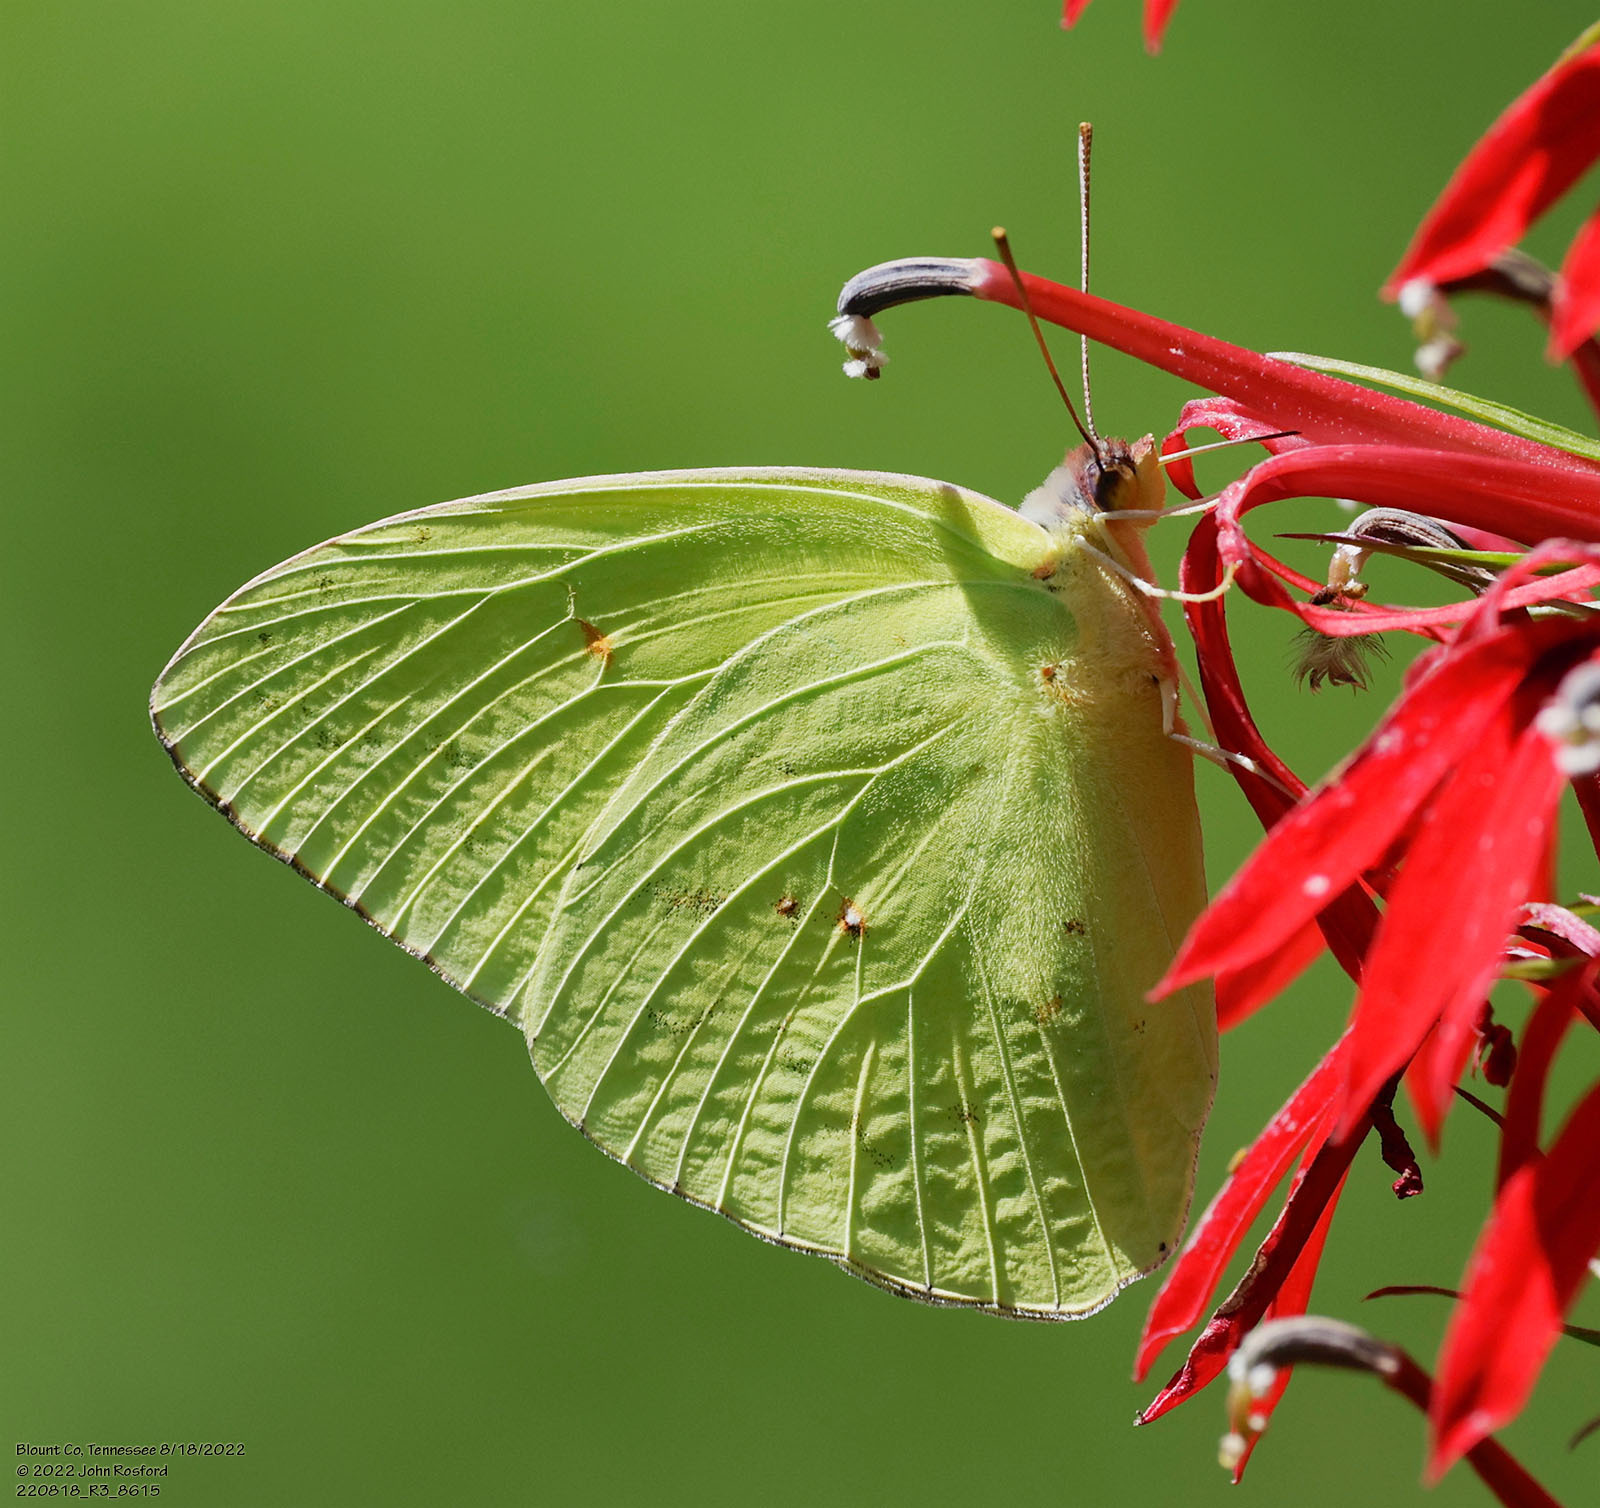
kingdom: Animalia
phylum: Arthropoda
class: Insecta
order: Lepidoptera
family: Pieridae
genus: Phoebis
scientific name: Phoebis sennae
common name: Cloudless sulphur
